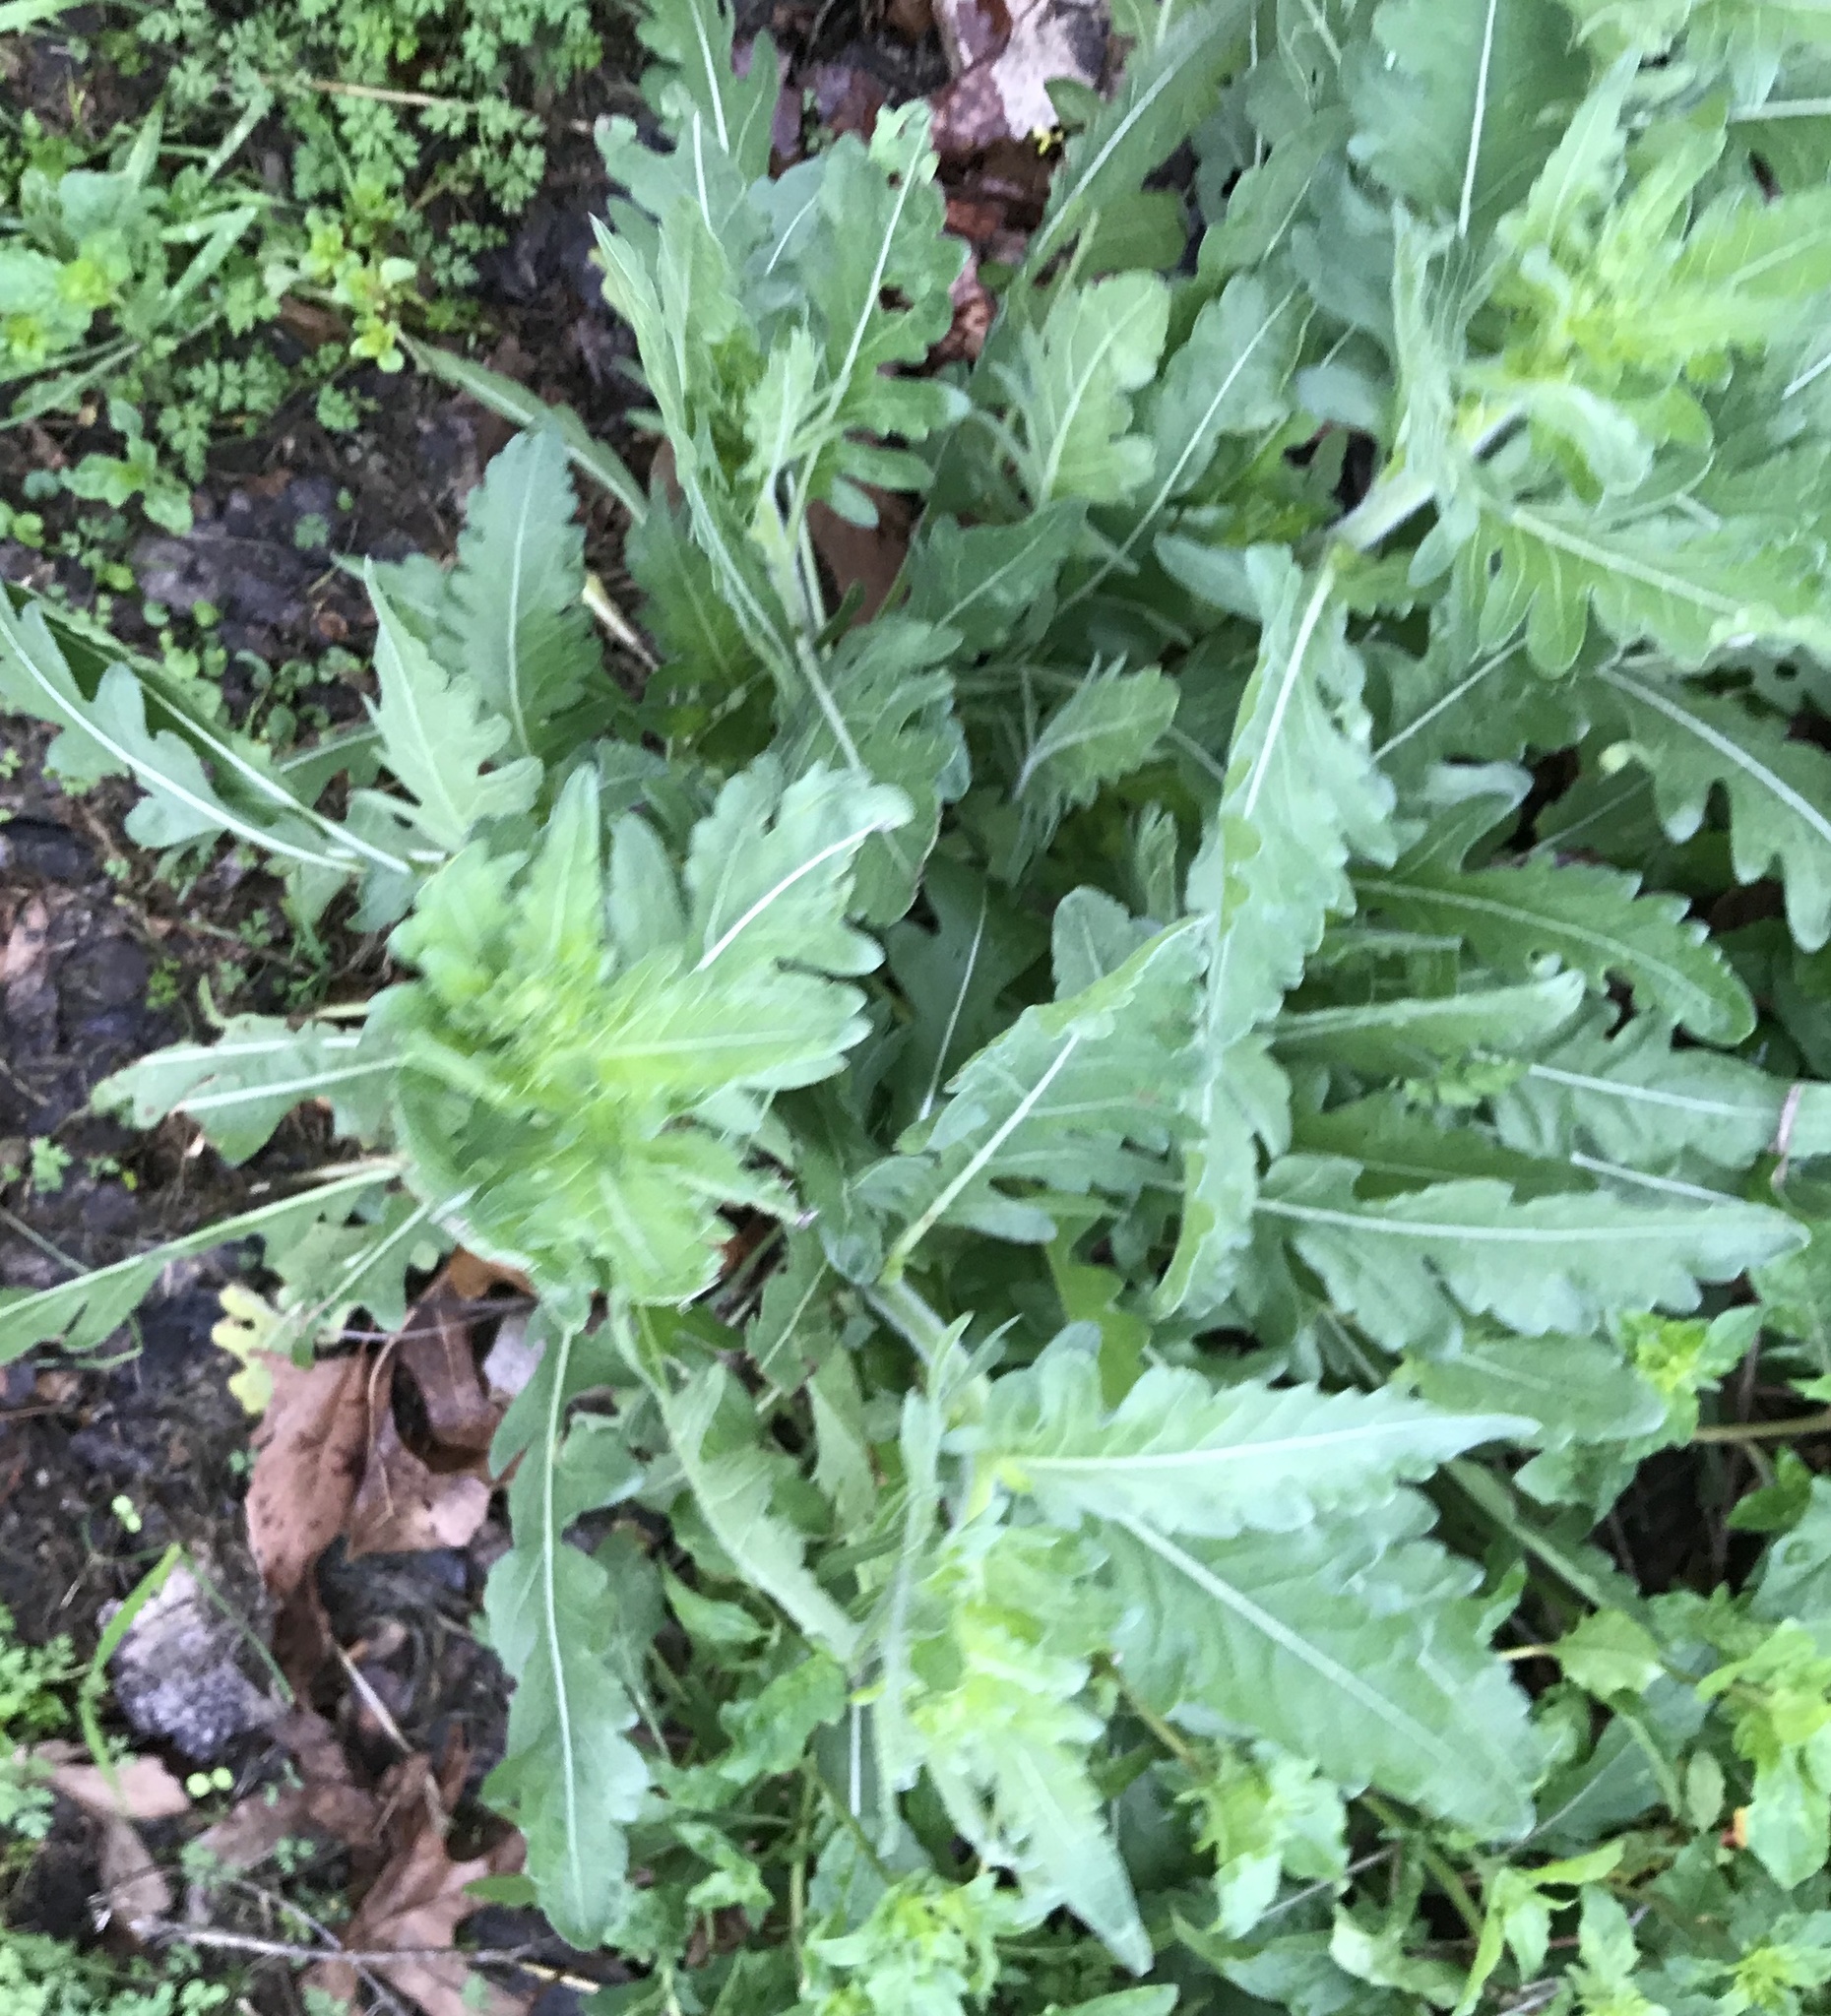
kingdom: Plantae
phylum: Tracheophyta
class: Magnoliopsida
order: Asterales
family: Asteraceae
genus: Engelmannia
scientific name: Engelmannia peristenia
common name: Engelmann's daisy
